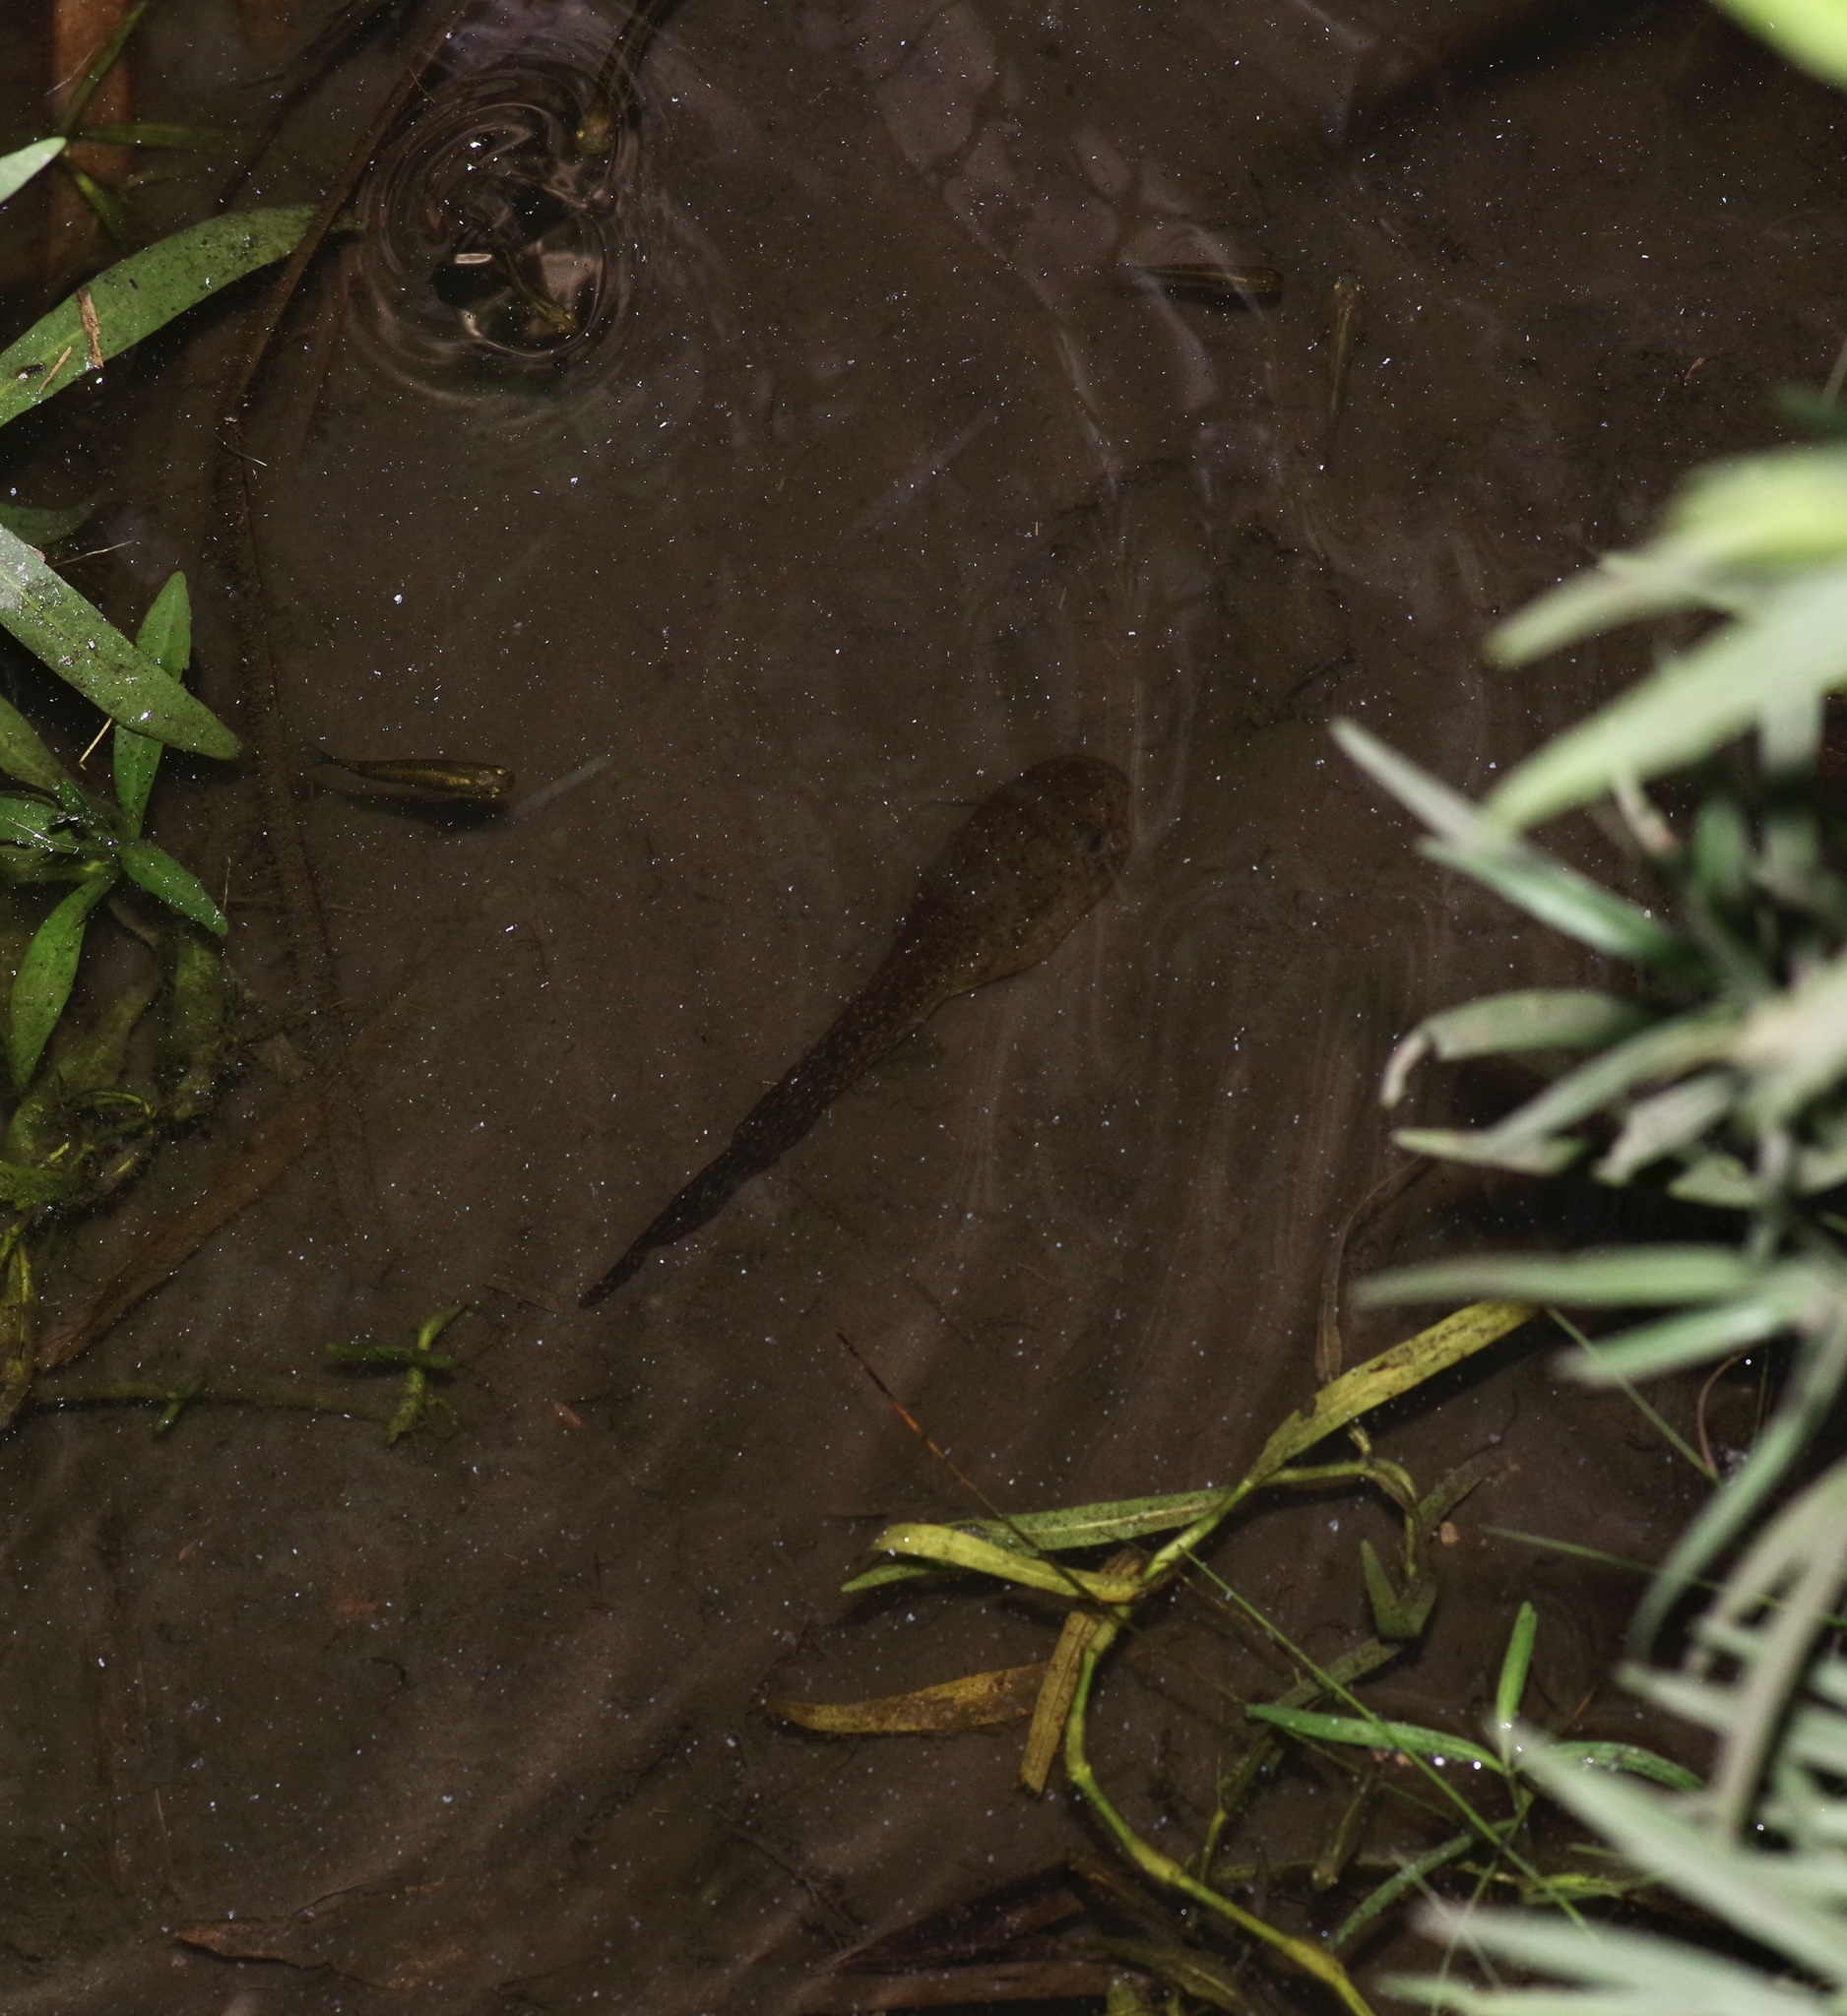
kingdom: Animalia
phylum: Chordata
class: Amphibia
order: Anura
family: Ranidae
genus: Lithobates
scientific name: Lithobates catesbeianus
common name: American bullfrog
